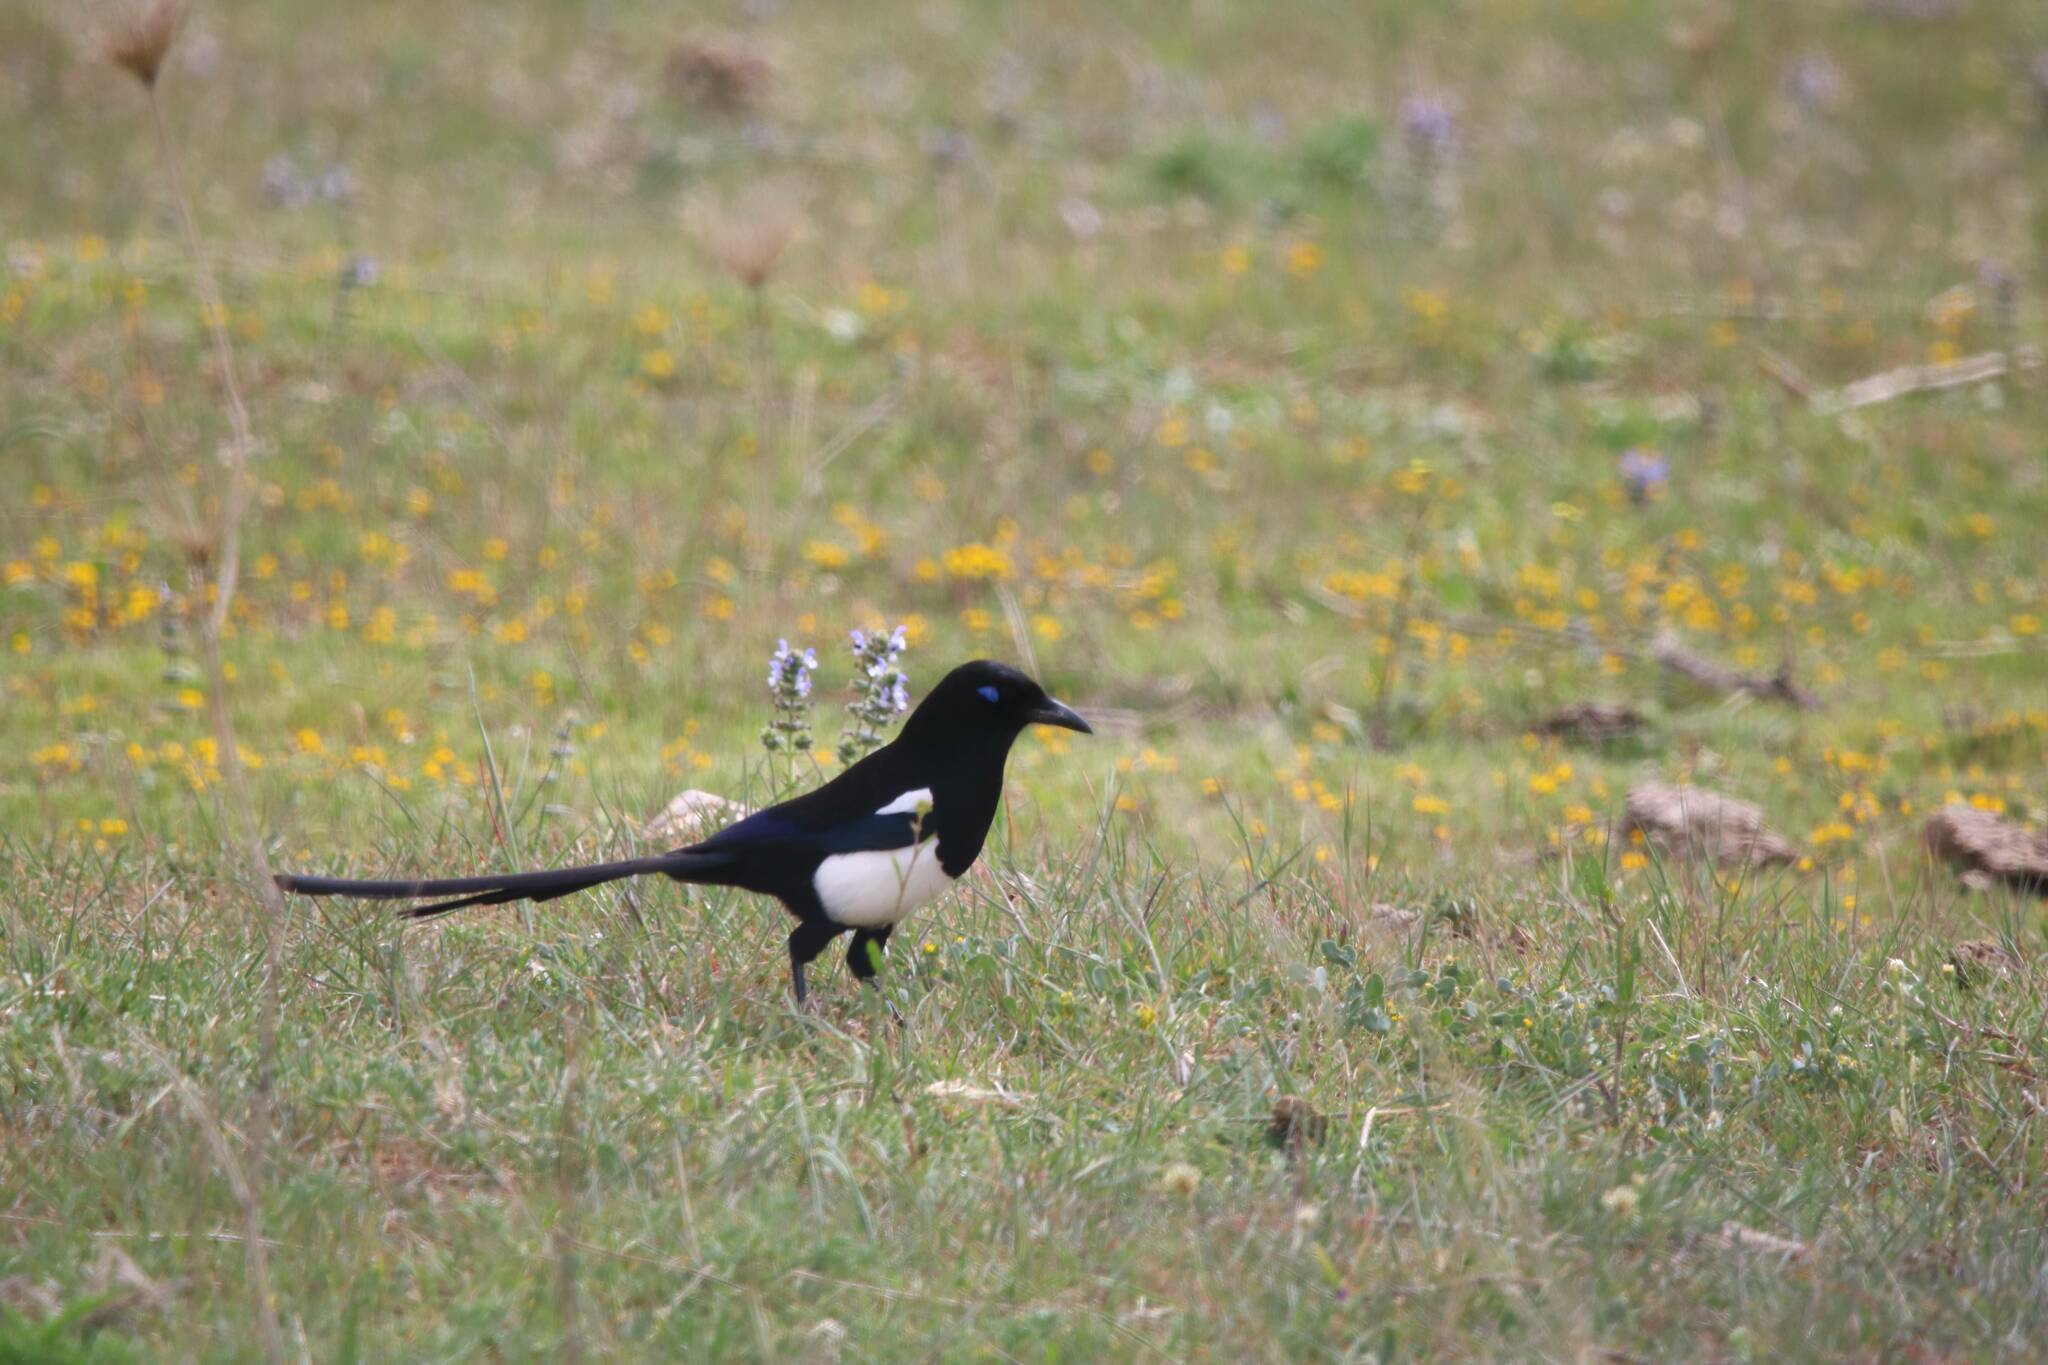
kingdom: Animalia
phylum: Chordata
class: Aves
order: Passeriformes
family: Corvidae
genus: Pica
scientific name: Pica mauritanica
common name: Maghreb magpie
